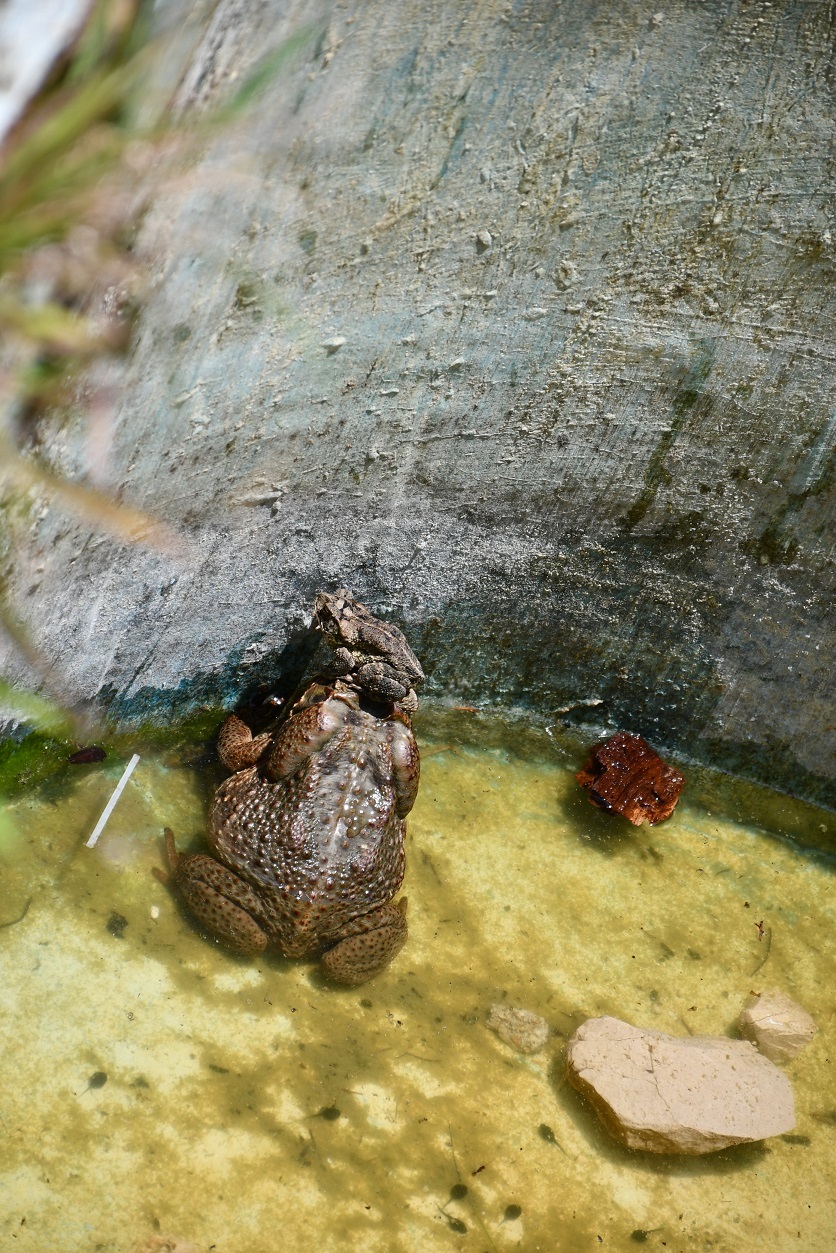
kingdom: Animalia
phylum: Chordata
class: Amphibia
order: Anura
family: Bufonidae
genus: Rhinella
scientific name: Rhinella horribilis
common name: Mesoamerican cane toad
